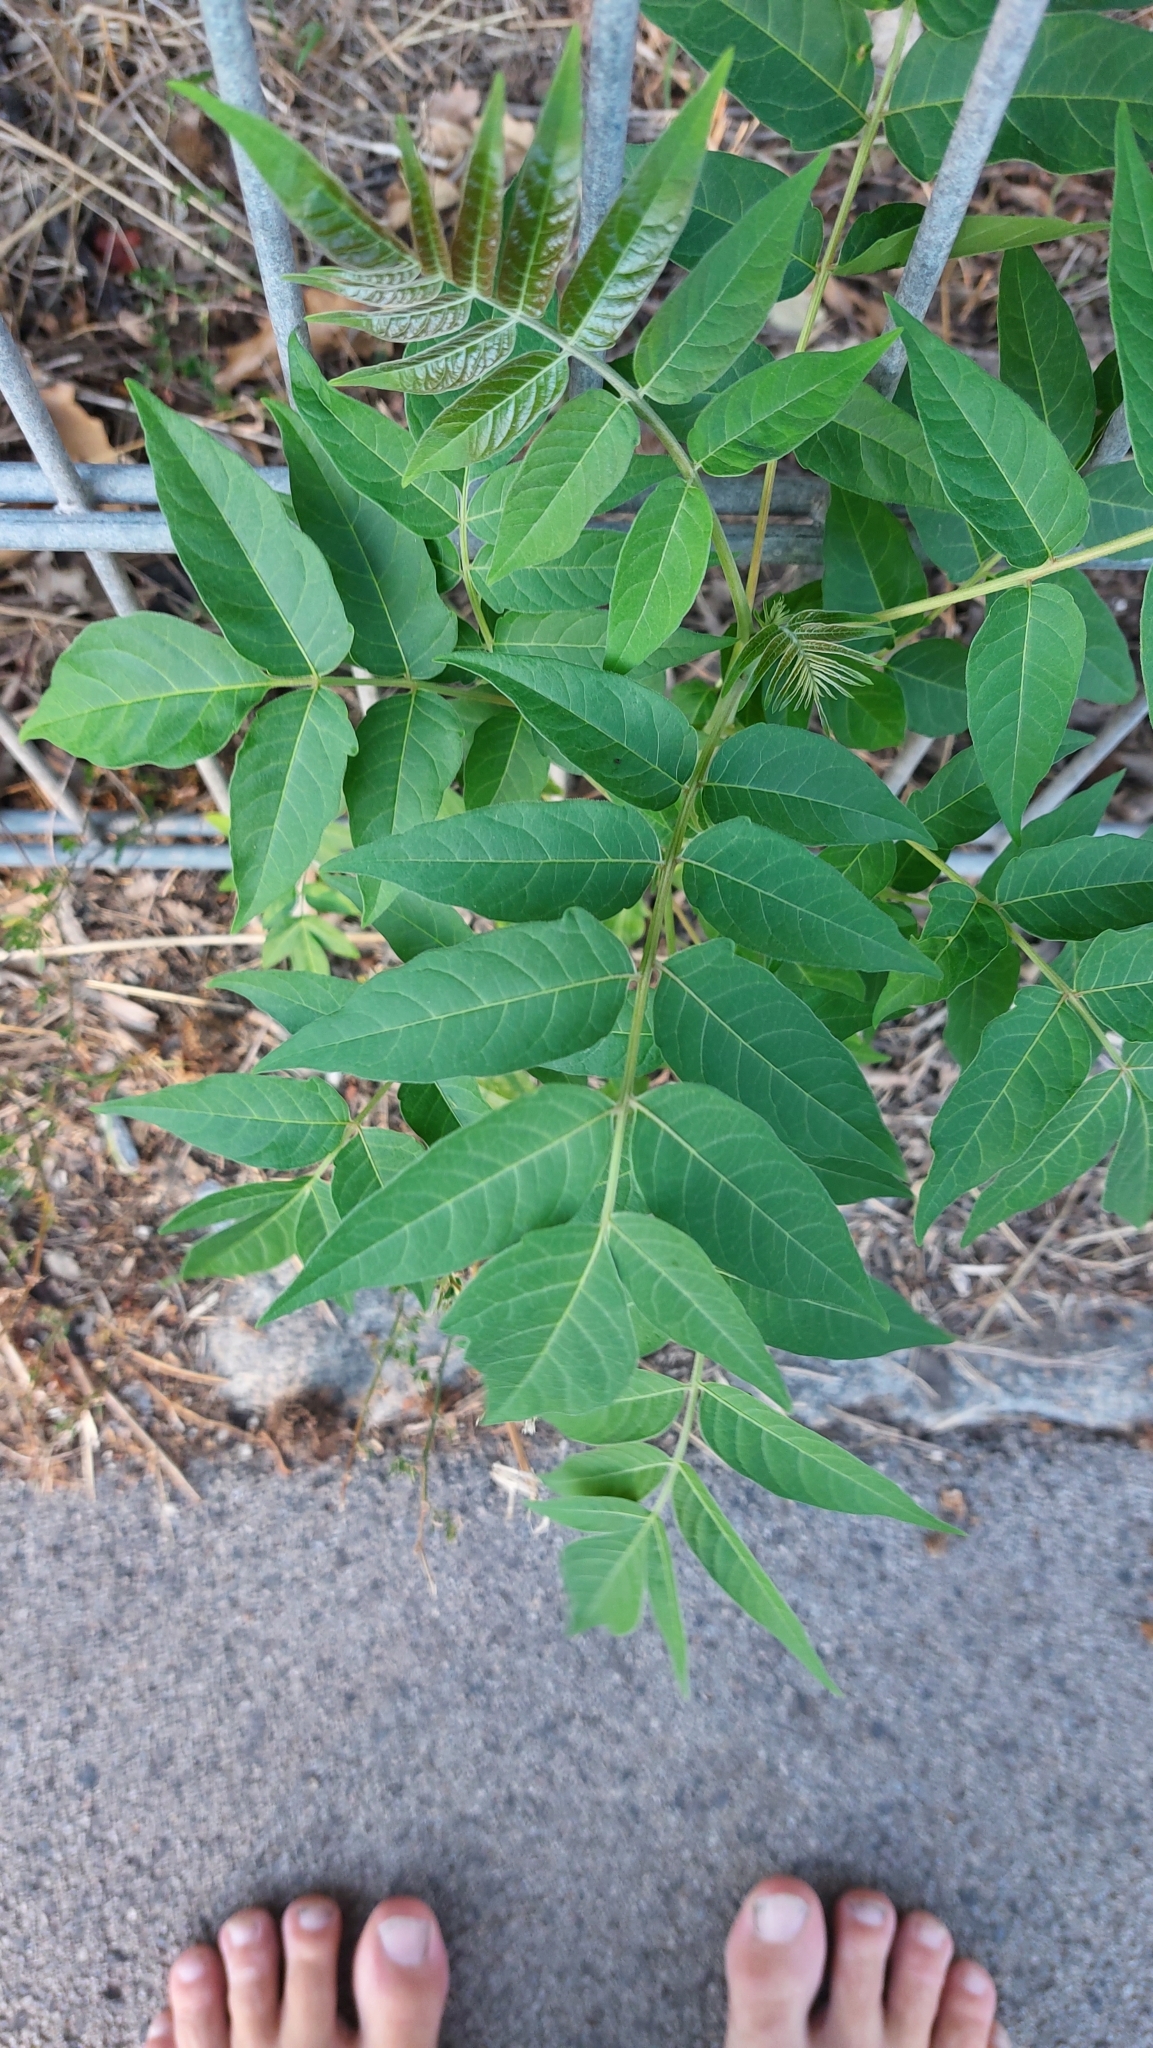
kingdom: Plantae
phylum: Tracheophyta
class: Magnoliopsida
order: Sapindales
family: Simaroubaceae
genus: Ailanthus
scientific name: Ailanthus altissima
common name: Tree-of-heaven
